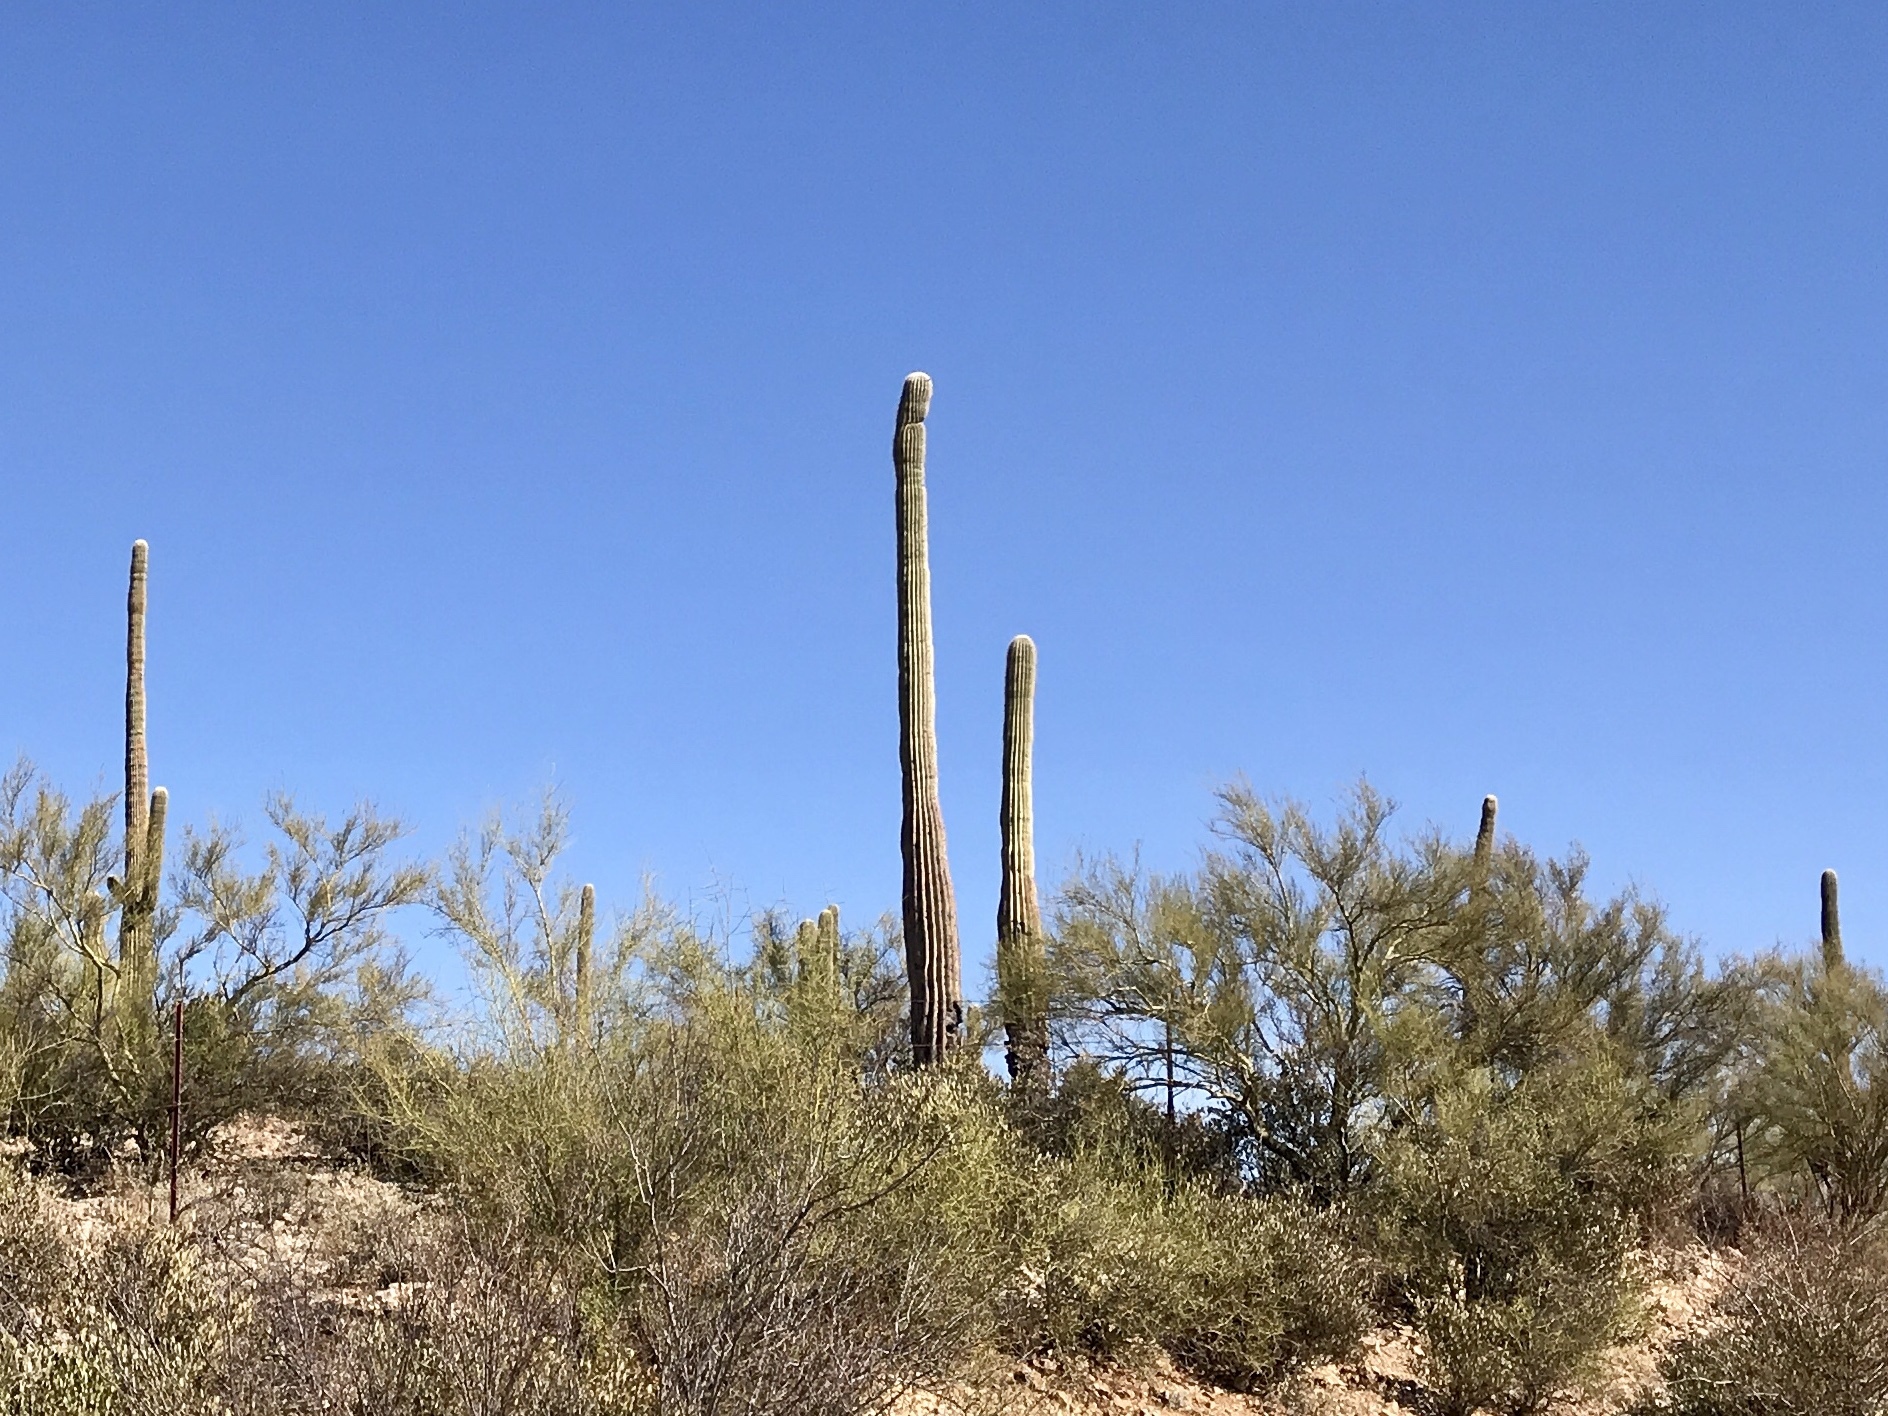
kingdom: Plantae
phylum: Tracheophyta
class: Magnoliopsida
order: Caryophyllales
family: Cactaceae
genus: Carnegiea
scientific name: Carnegiea gigantea
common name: Saguaro
